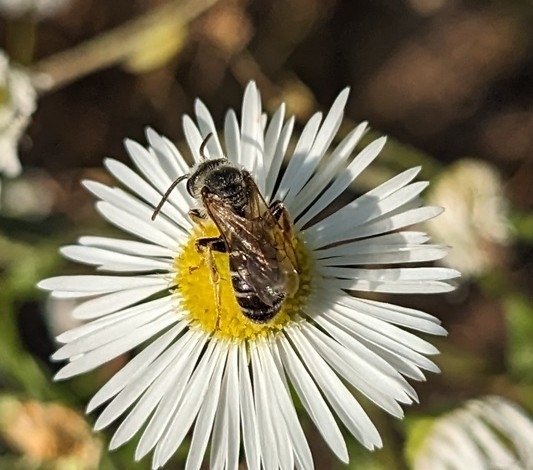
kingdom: Animalia
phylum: Arthropoda
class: Insecta
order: Hymenoptera
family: Halictidae
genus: Halictus
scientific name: Halictus ligatus
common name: Ligated furrow bee
